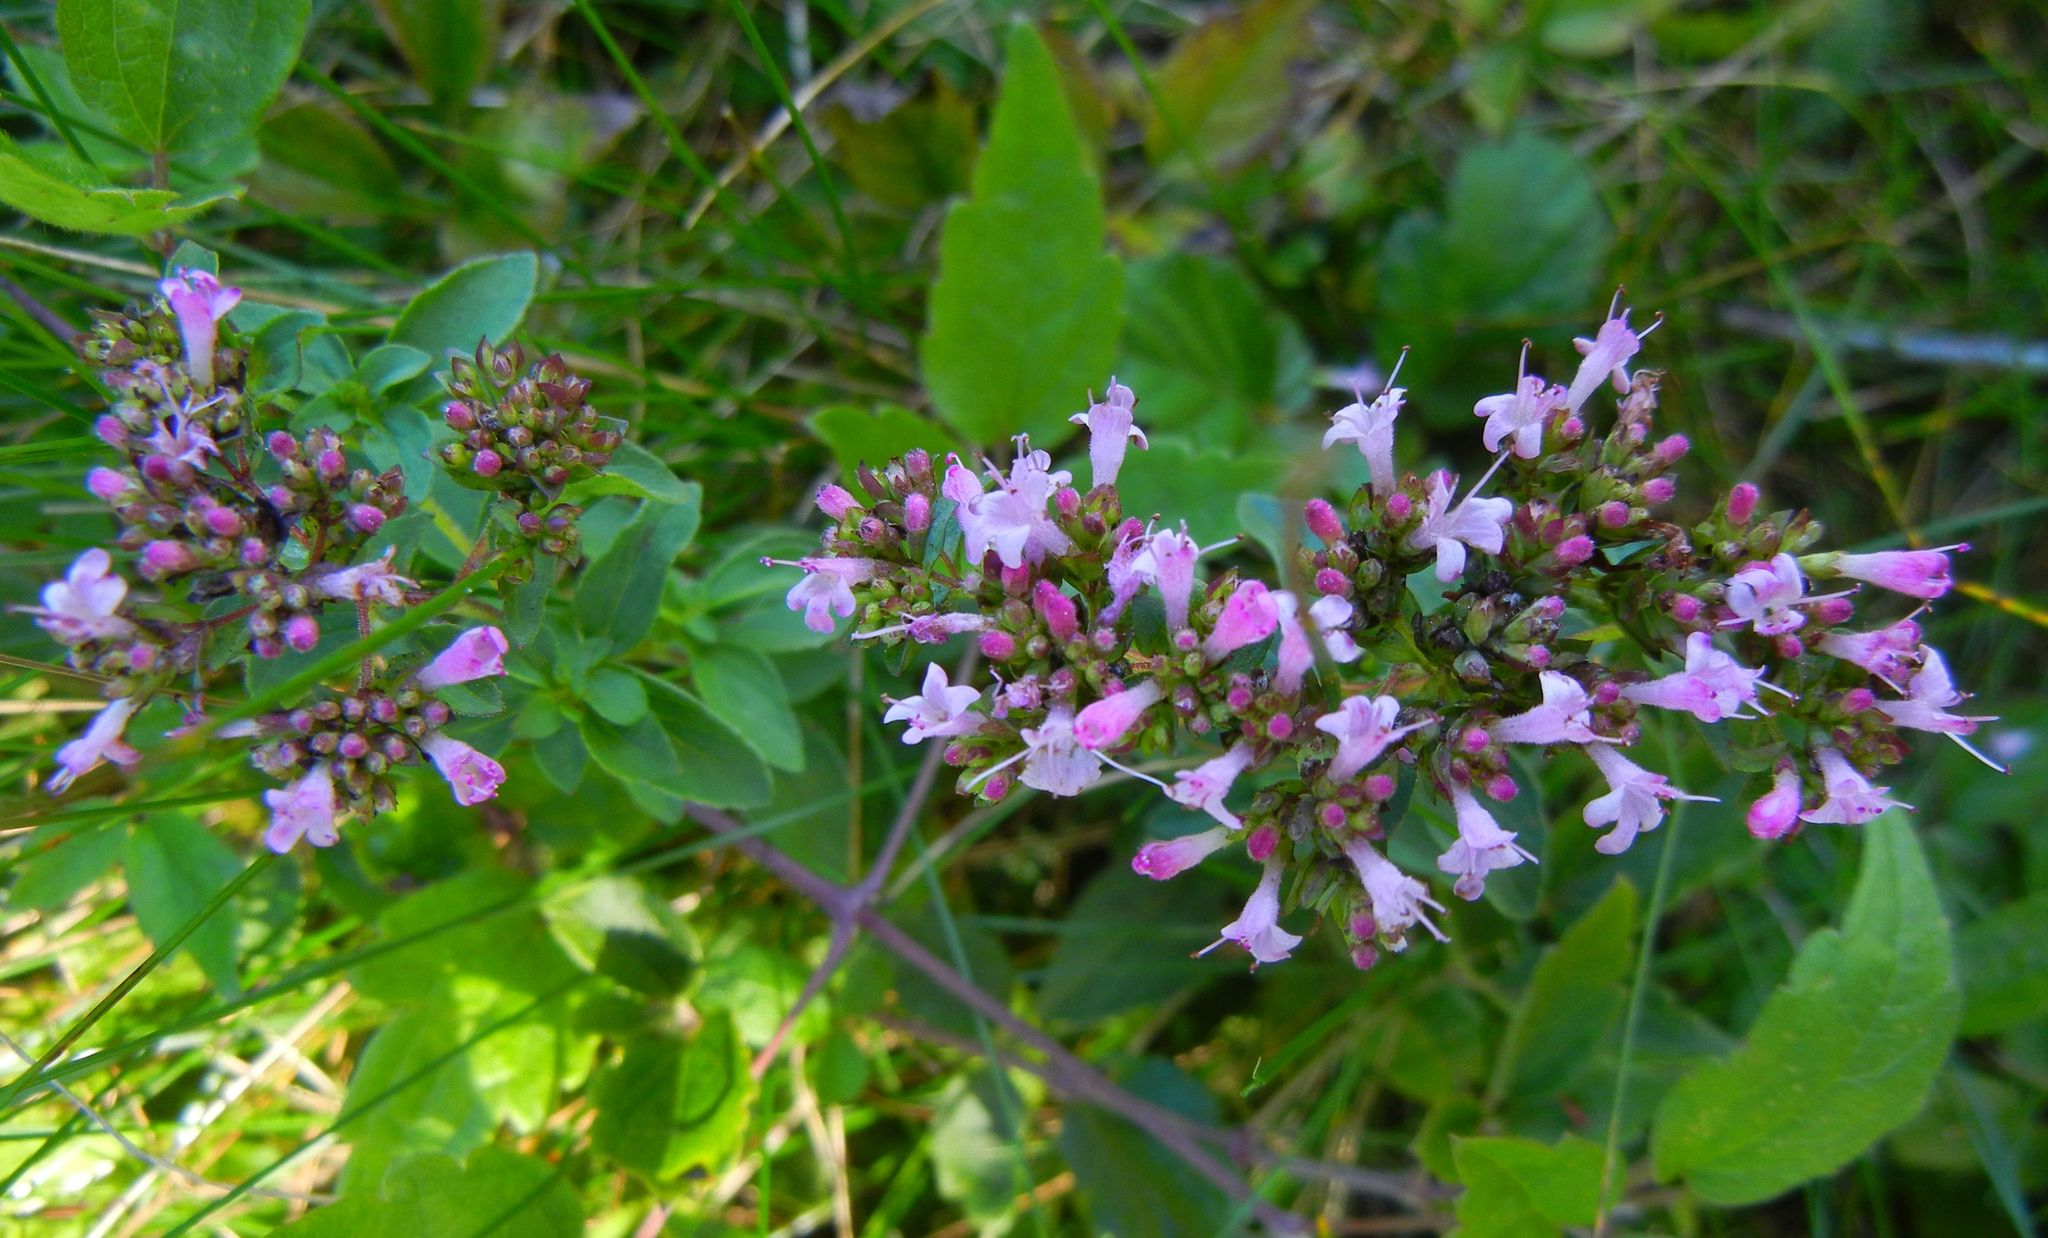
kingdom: Plantae
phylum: Tracheophyta
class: Magnoliopsida
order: Lamiales
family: Lamiaceae
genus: Origanum
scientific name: Origanum vulgare
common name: Wild marjoram
